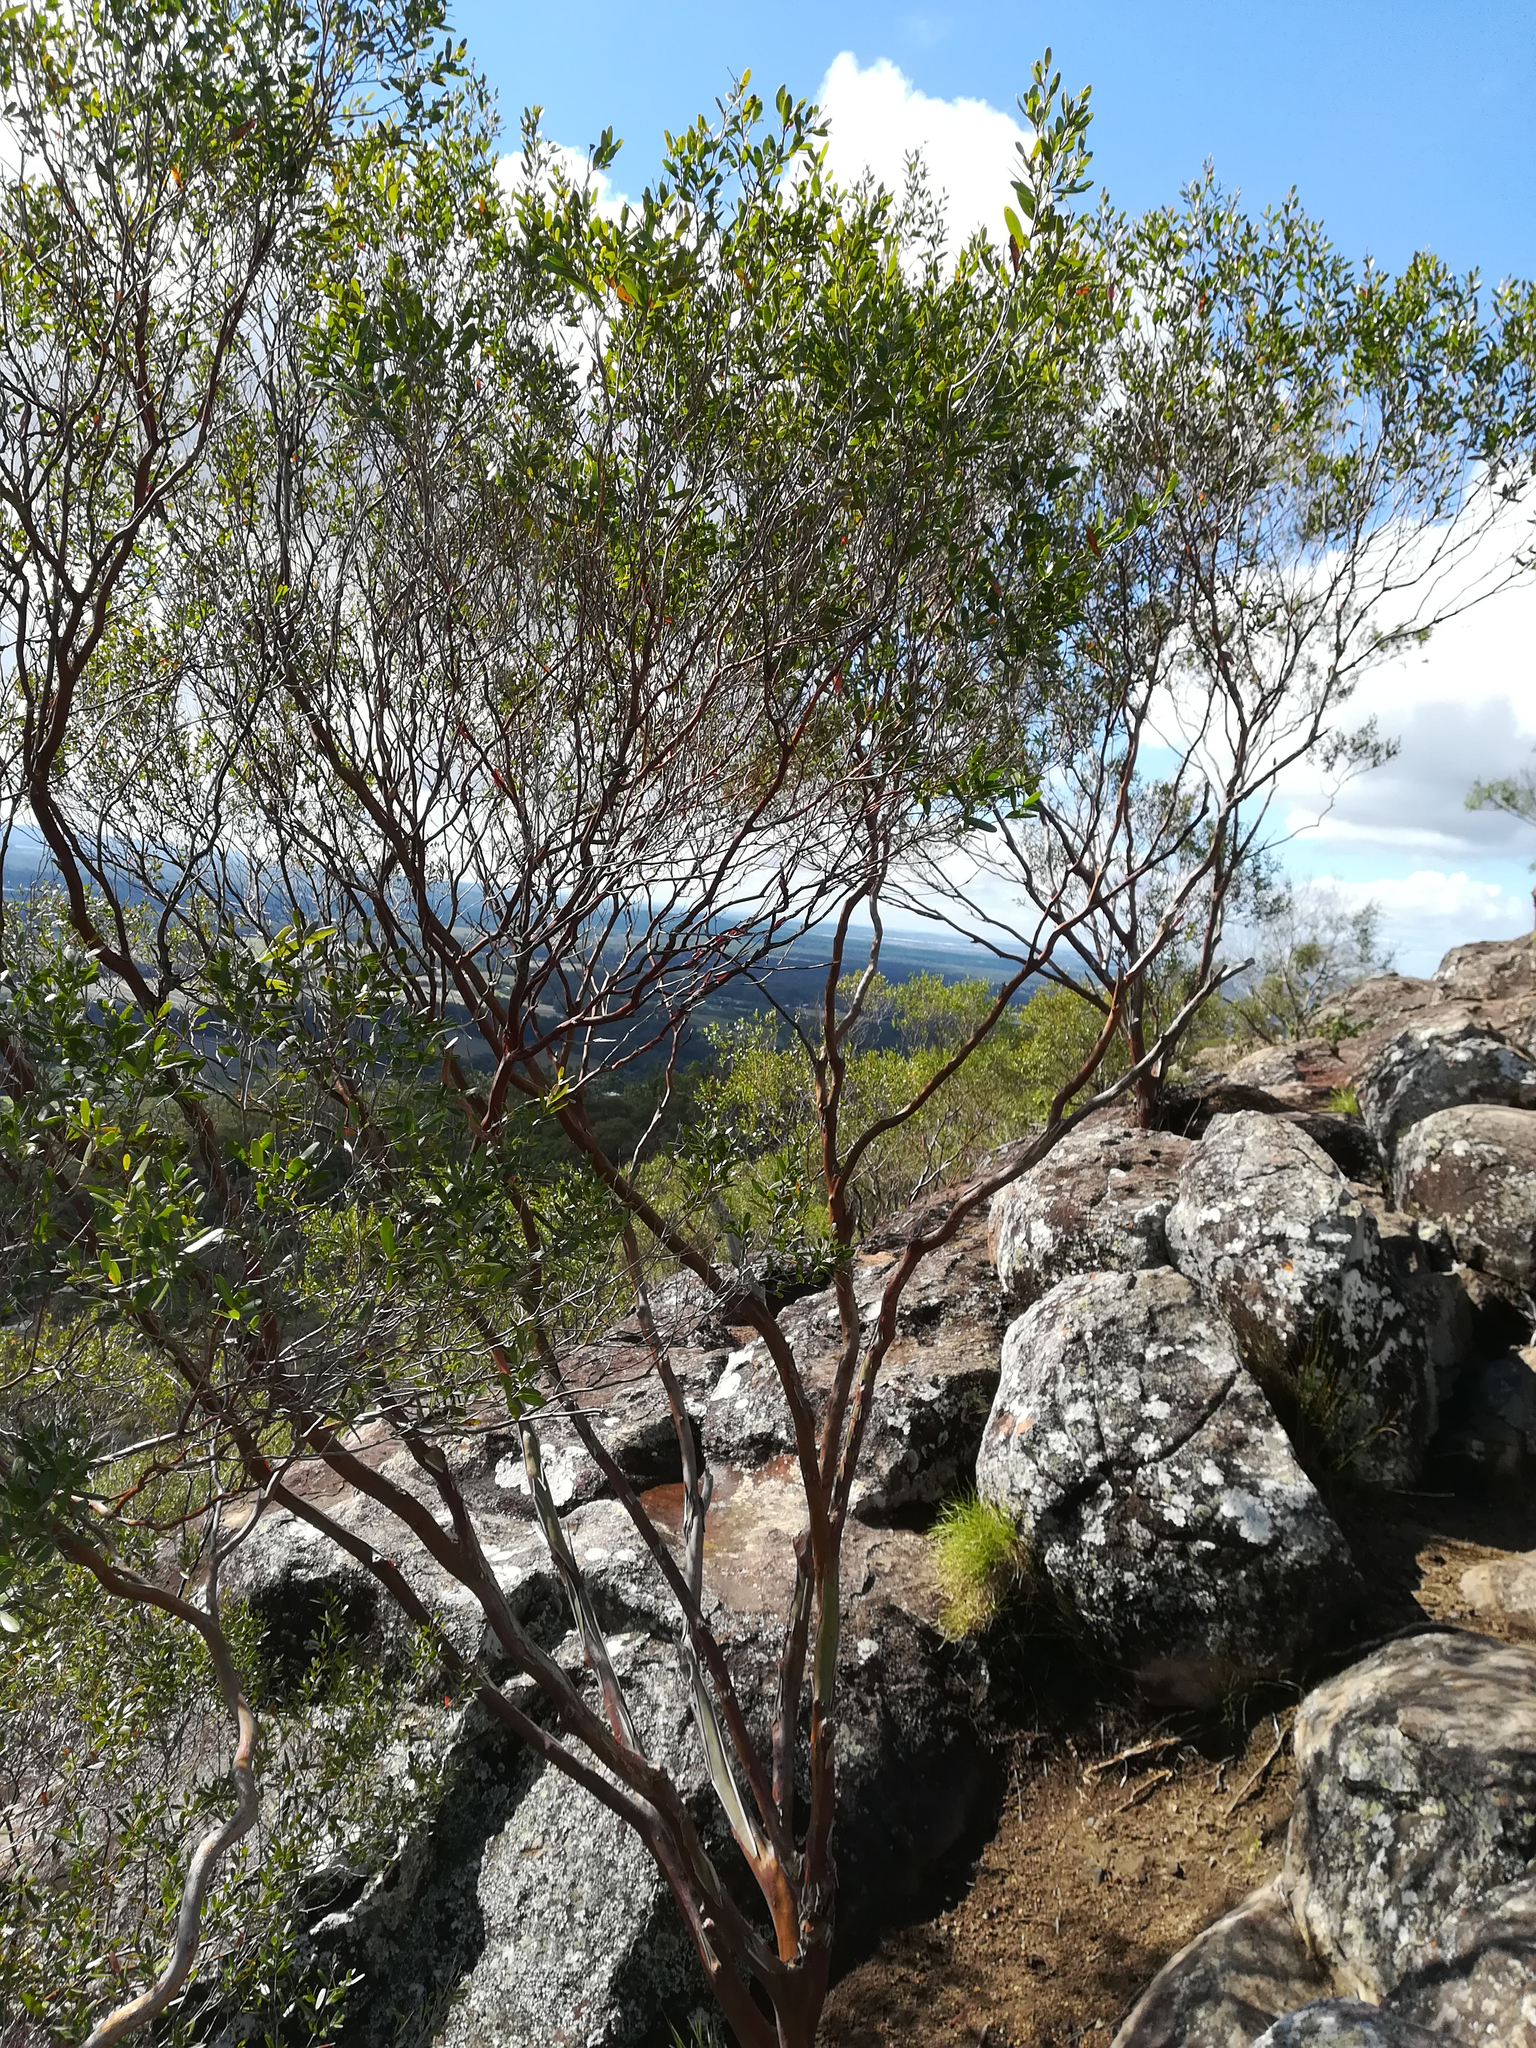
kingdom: Plantae
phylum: Tracheophyta
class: Magnoliopsida
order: Myrtales
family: Myrtaceae
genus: Leptospermum
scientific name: Leptospermum luehmannii
